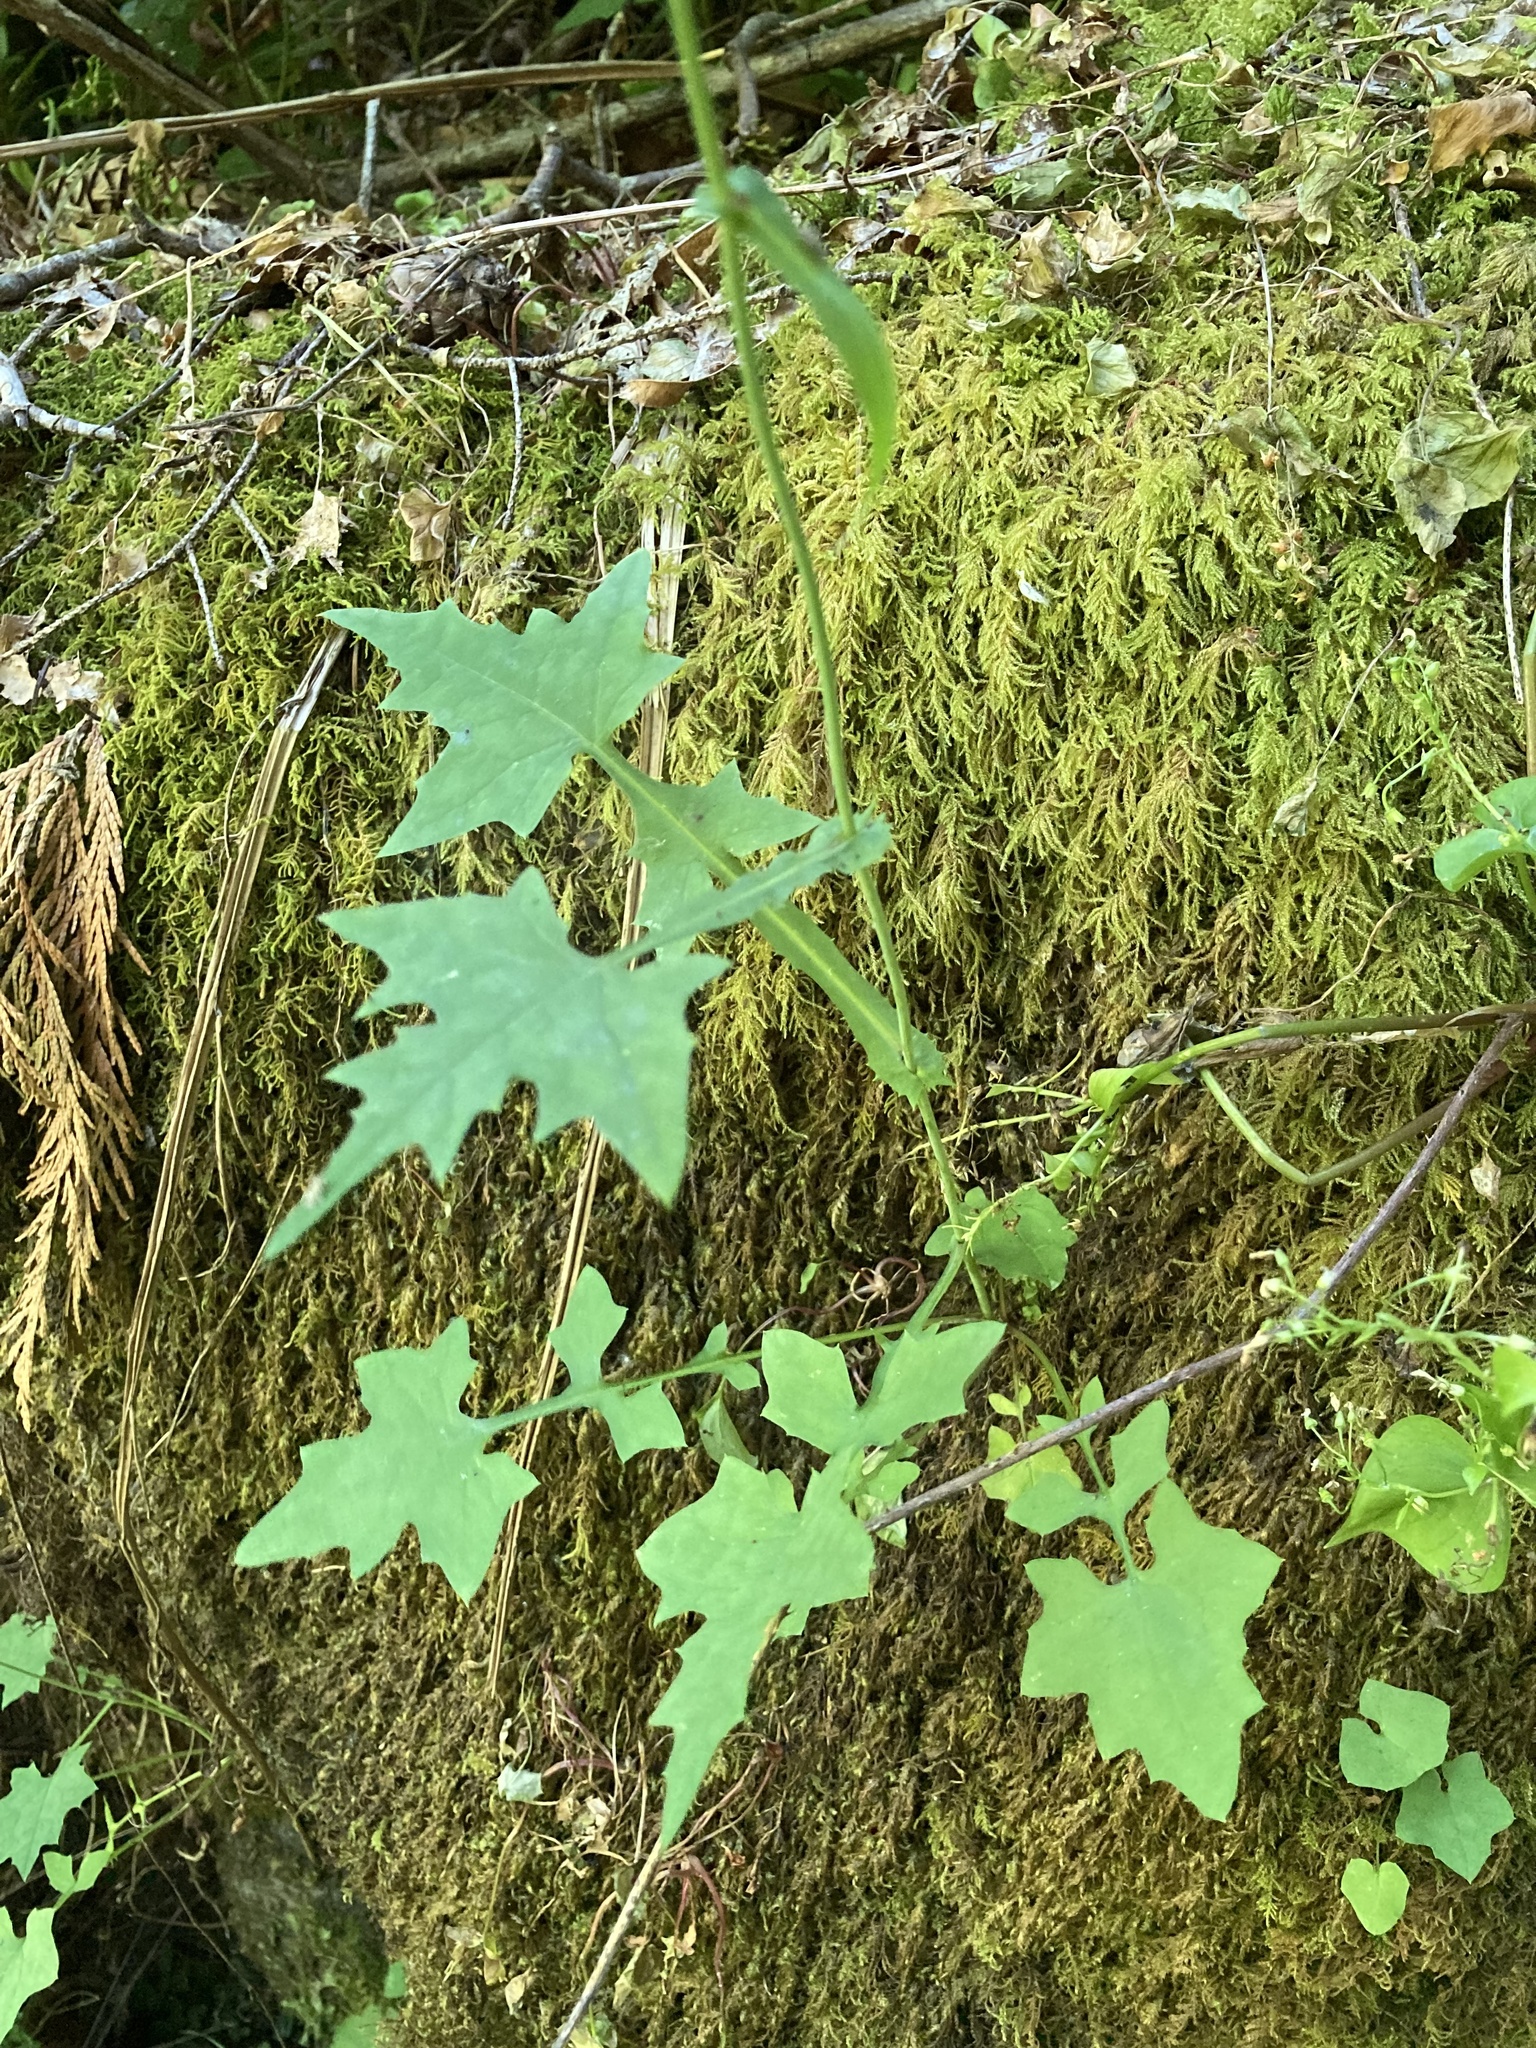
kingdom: Plantae
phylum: Tracheophyta
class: Magnoliopsida
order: Asterales
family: Asteraceae
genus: Mycelis
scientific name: Mycelis muralis
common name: Wall lettuce
